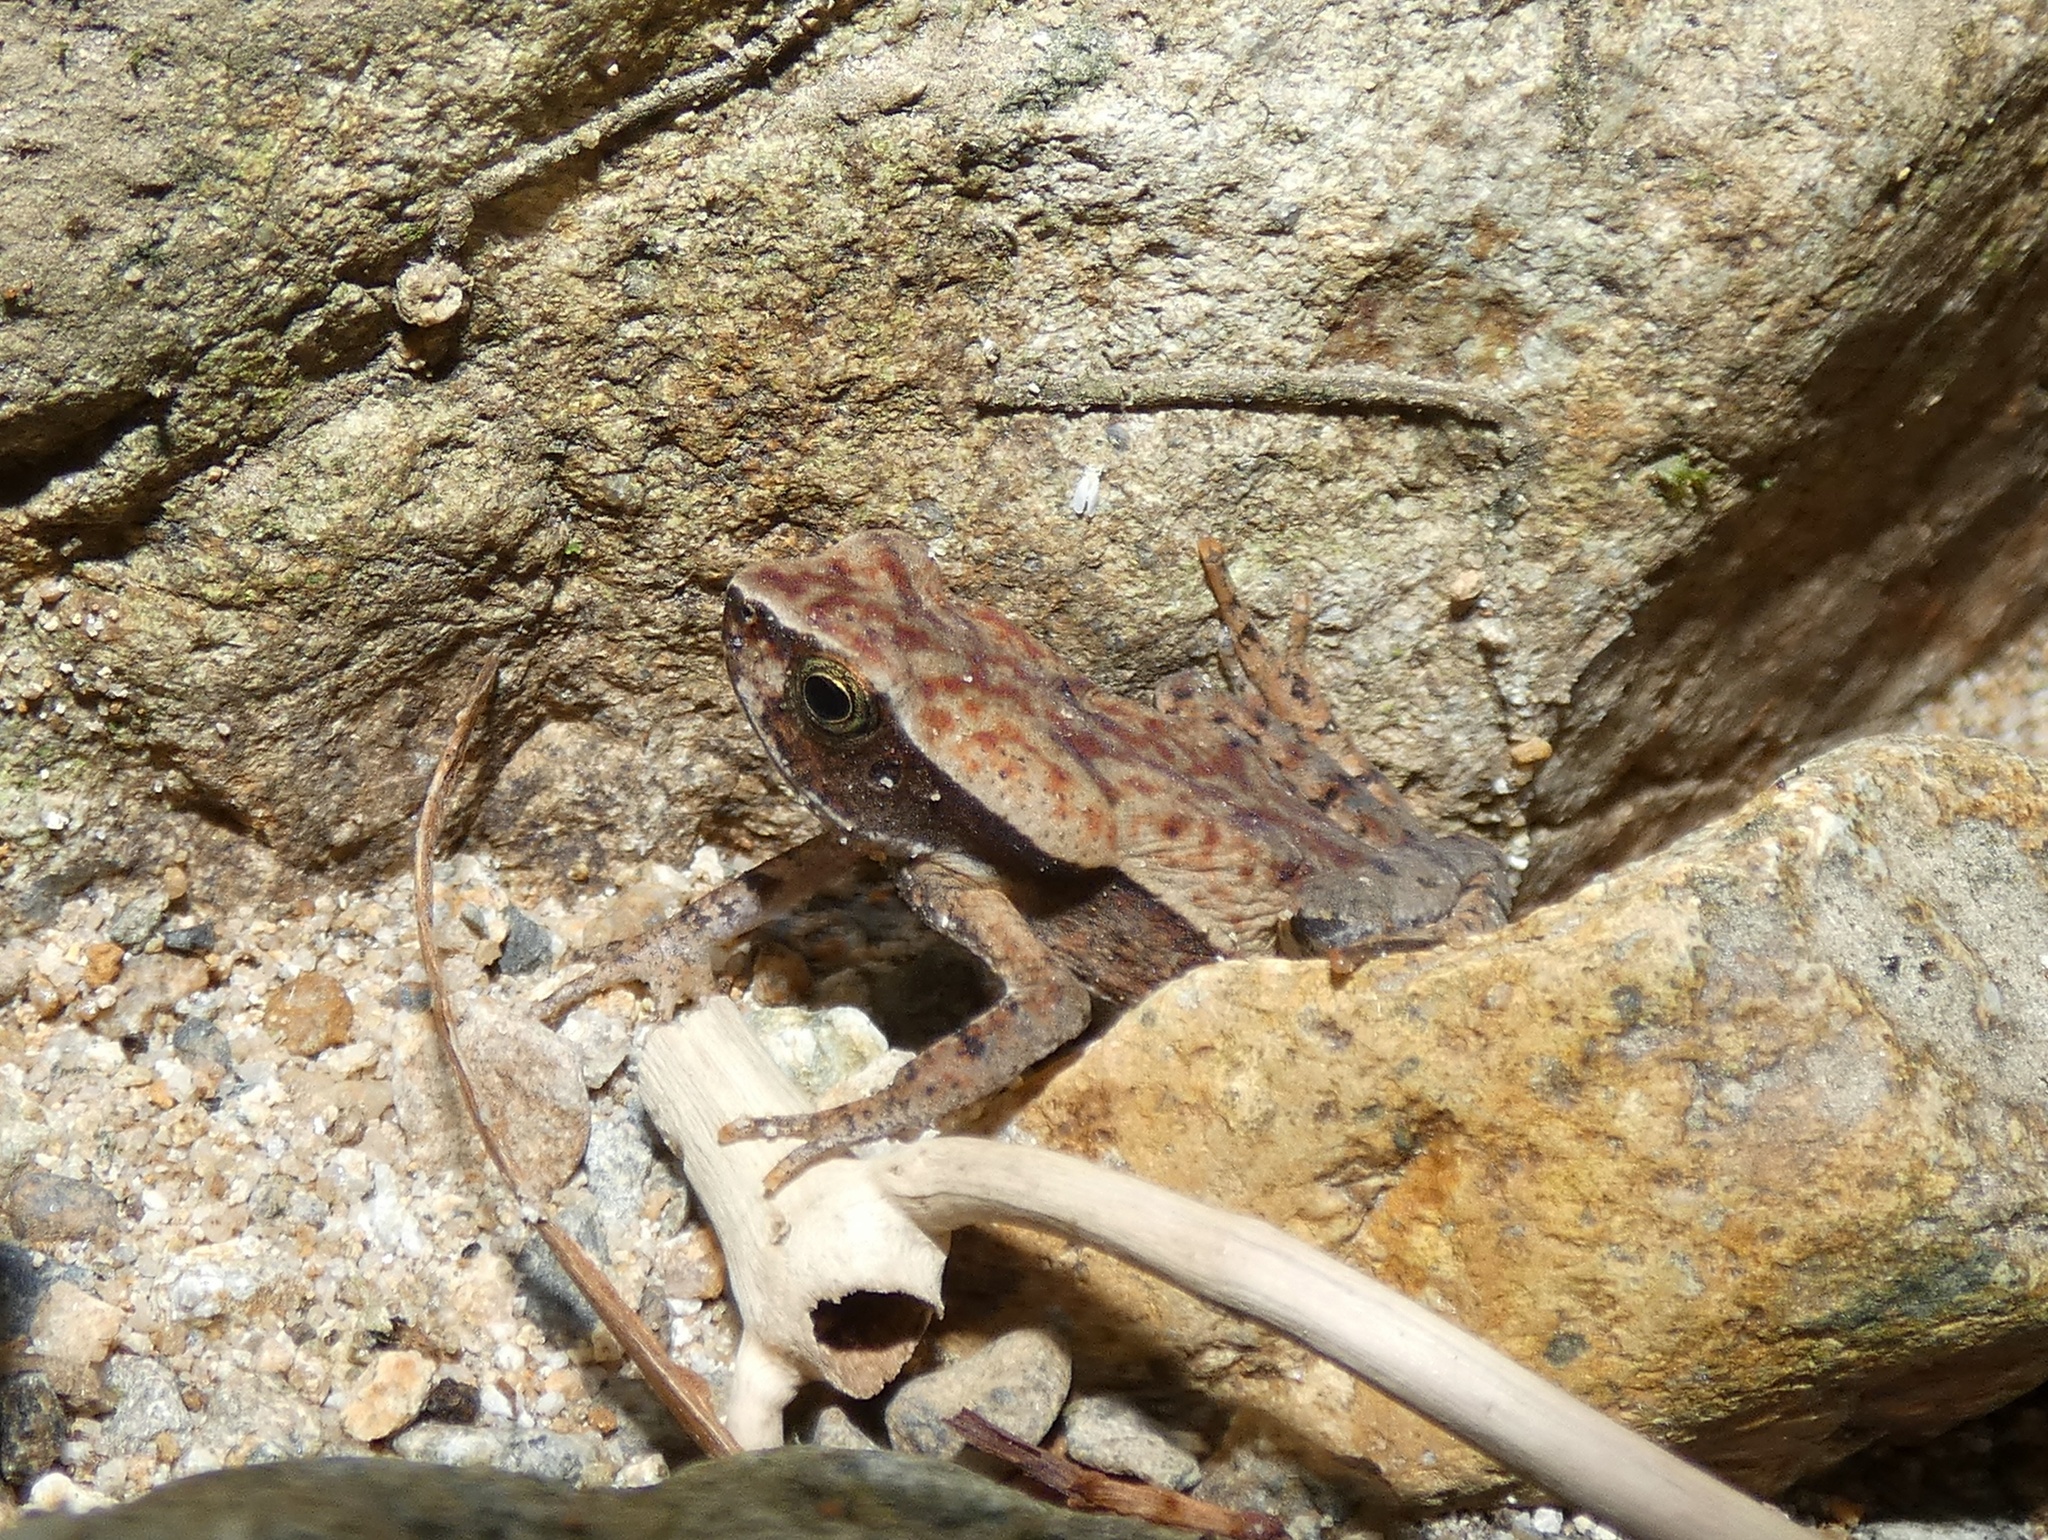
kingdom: Animalia
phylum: Chordata
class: Amphibia
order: Anura
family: Bufonidae
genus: Rhaebo
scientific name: Rhaebo haematiticus
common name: Truando toad
